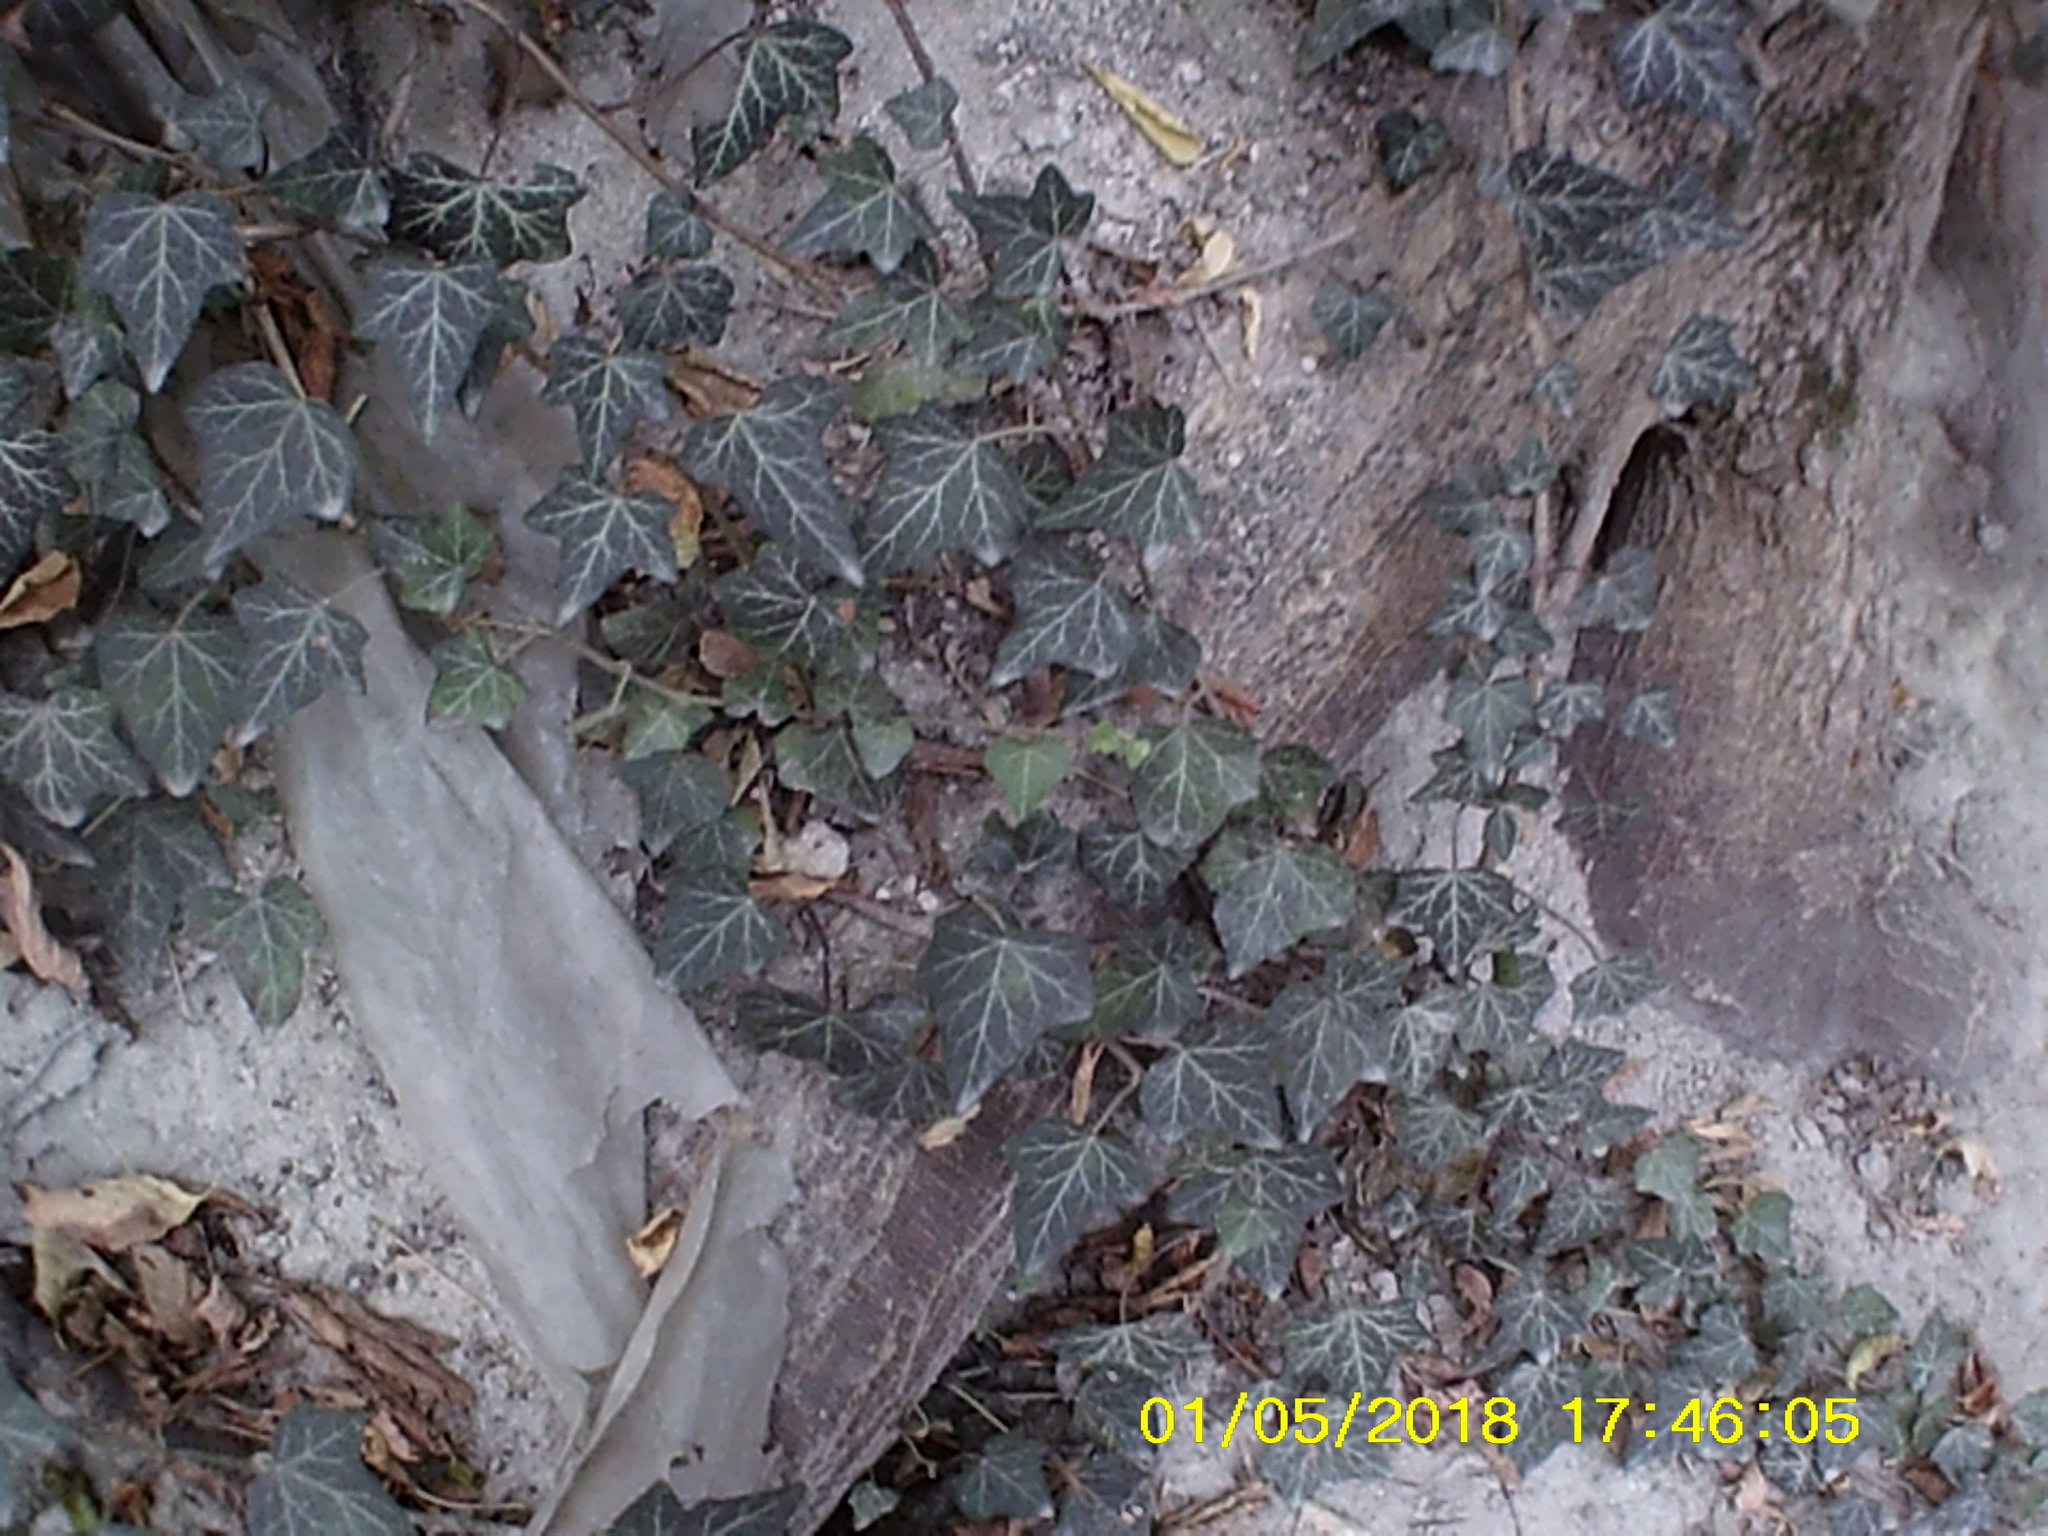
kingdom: Plantae
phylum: Tracheophyta
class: Magnoliopsida
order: Apiales
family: Araliaceae
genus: Hedera
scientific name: Hedera helix
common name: Ivy
